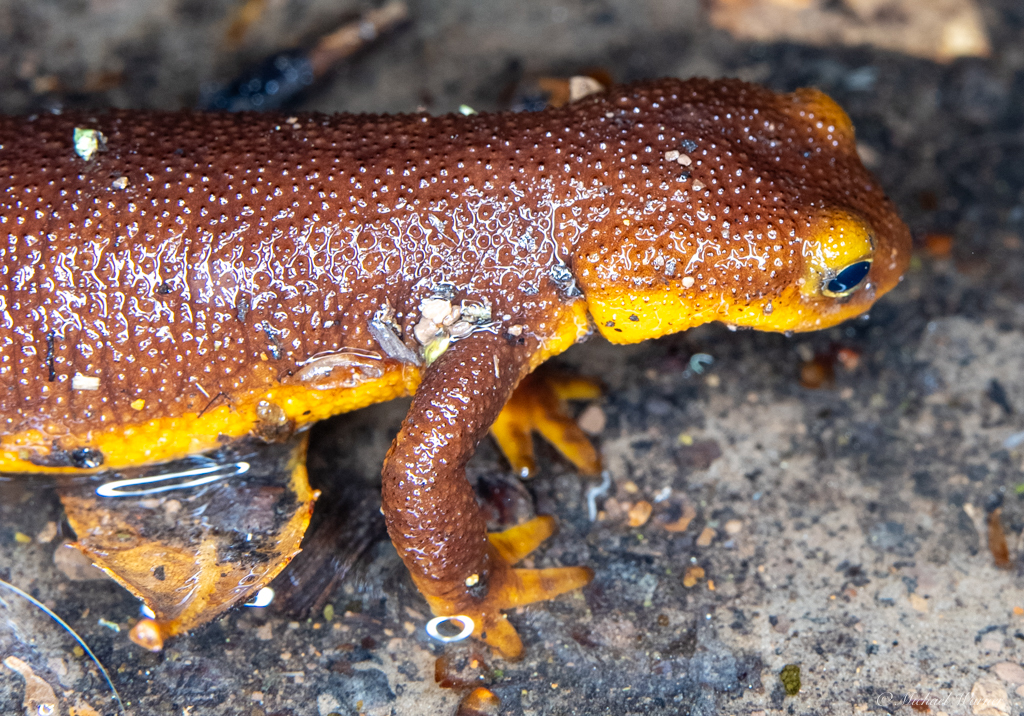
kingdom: Animalia
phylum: Chordata
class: Amphibia
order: Caudata
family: Salamandridae
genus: Taricha
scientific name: Taricha torosa
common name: California newt
